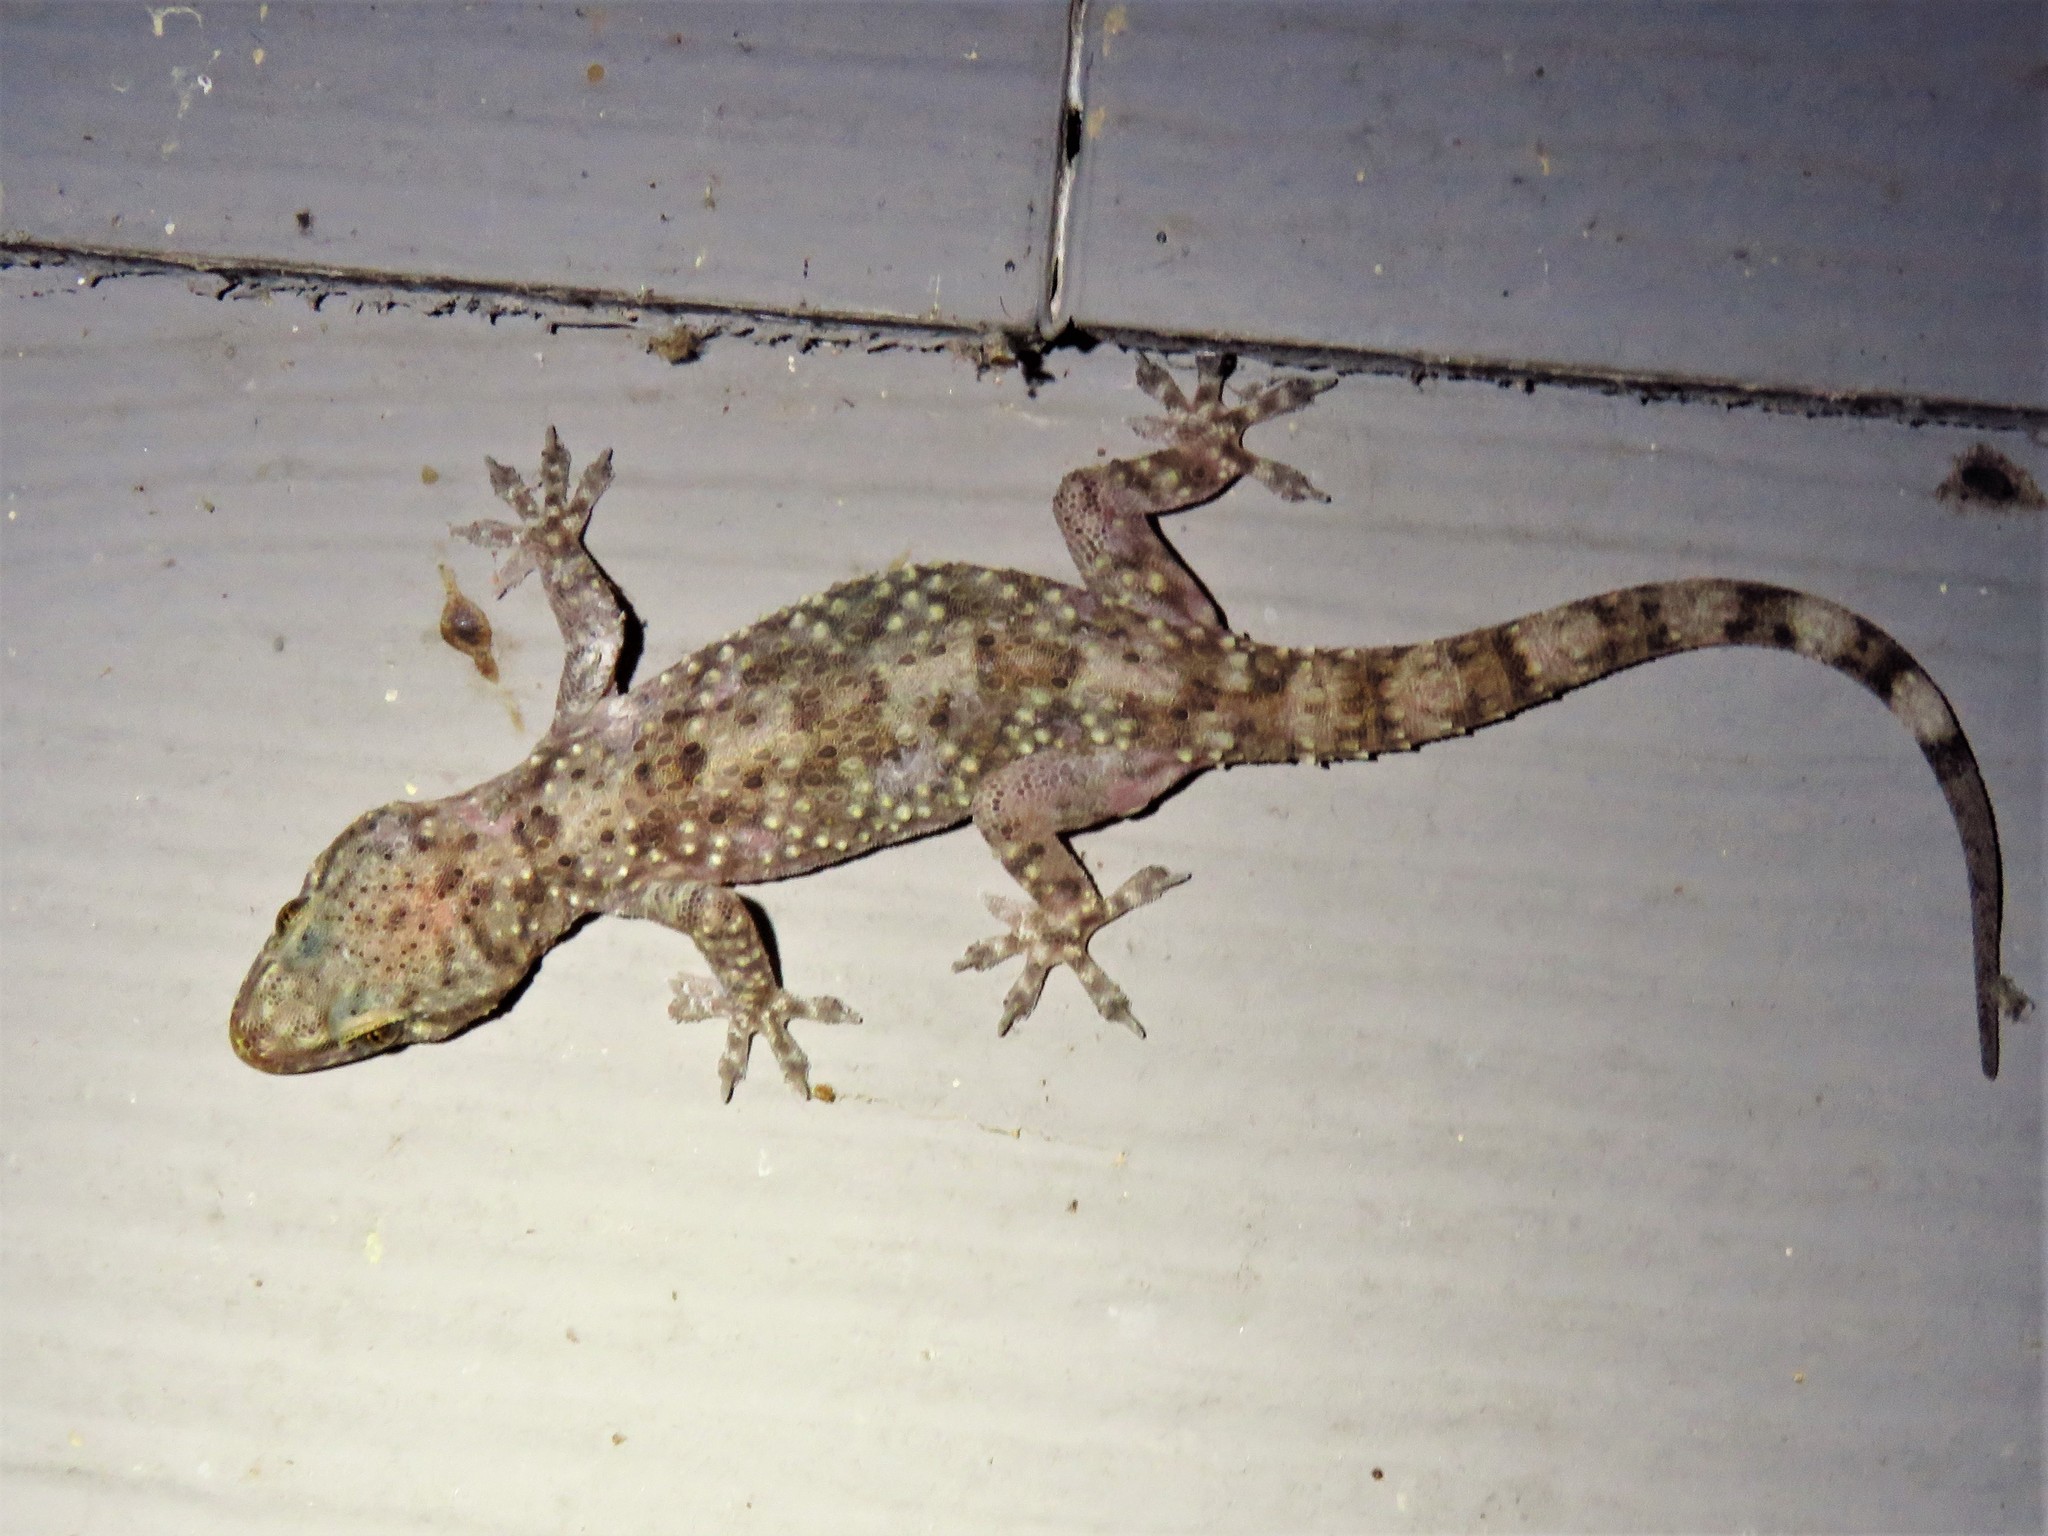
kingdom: Animalia
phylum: Chordata
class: Squamata
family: Gekkonidae
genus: Hemidactylus
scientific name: Hemidactylus turcicus
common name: Turkish gecko
